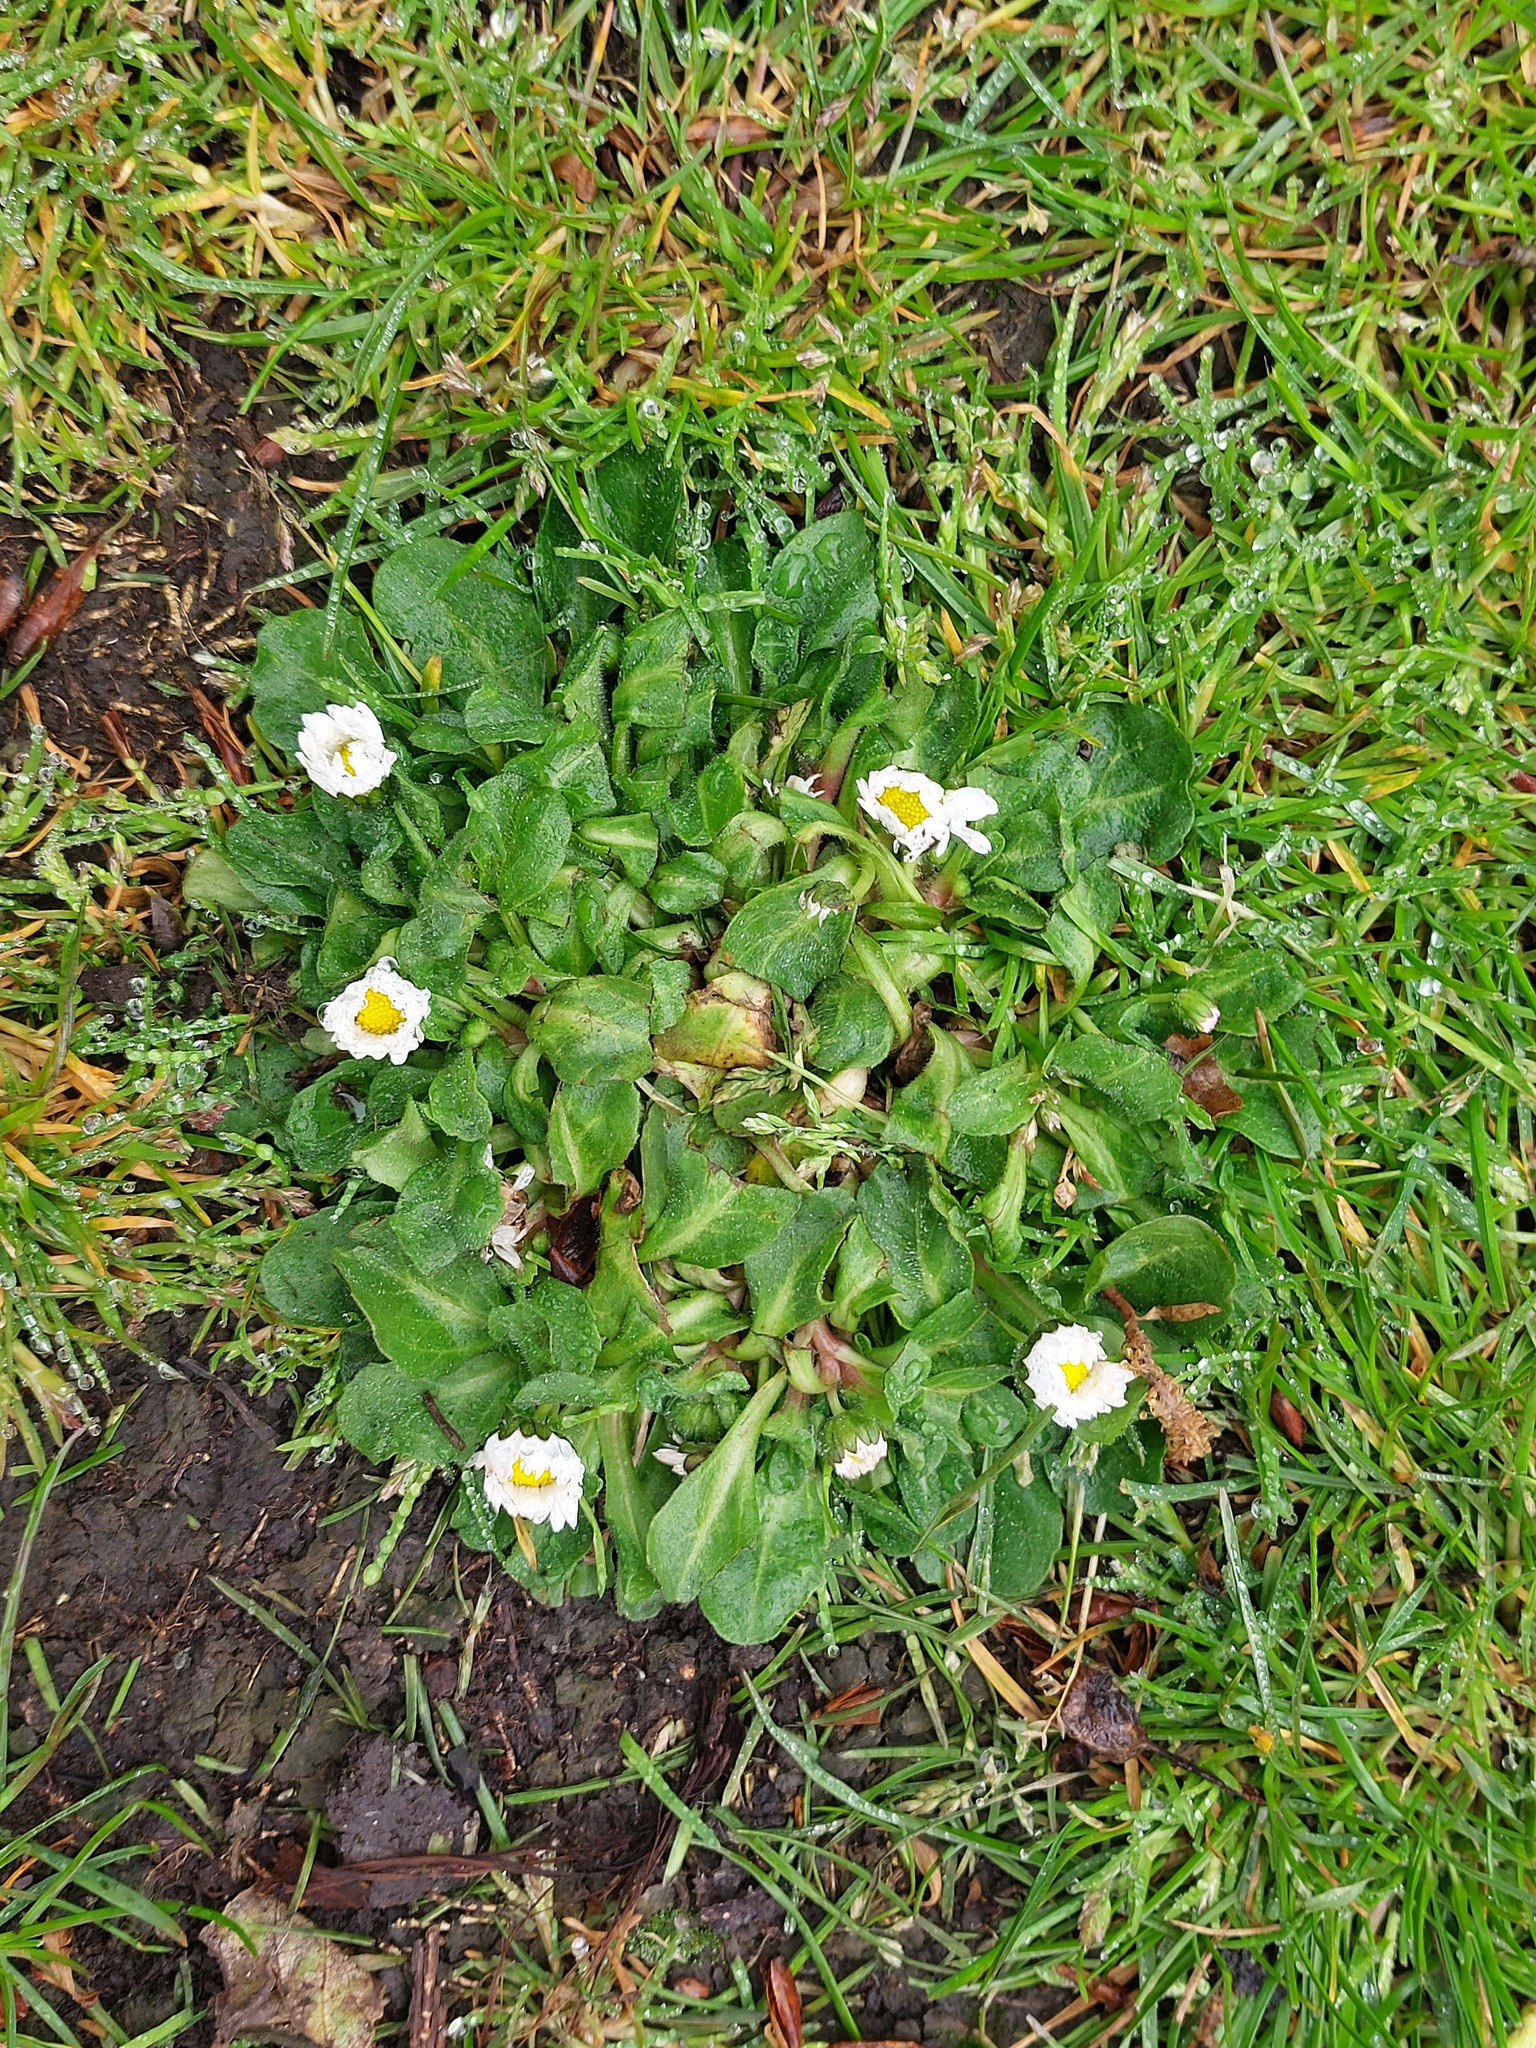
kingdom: Plantae
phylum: Tracheophyta
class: Magnoliopsida
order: Asterales
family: Asteraceae
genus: Bellis
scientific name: Bellis perennis
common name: Lawndaisy
